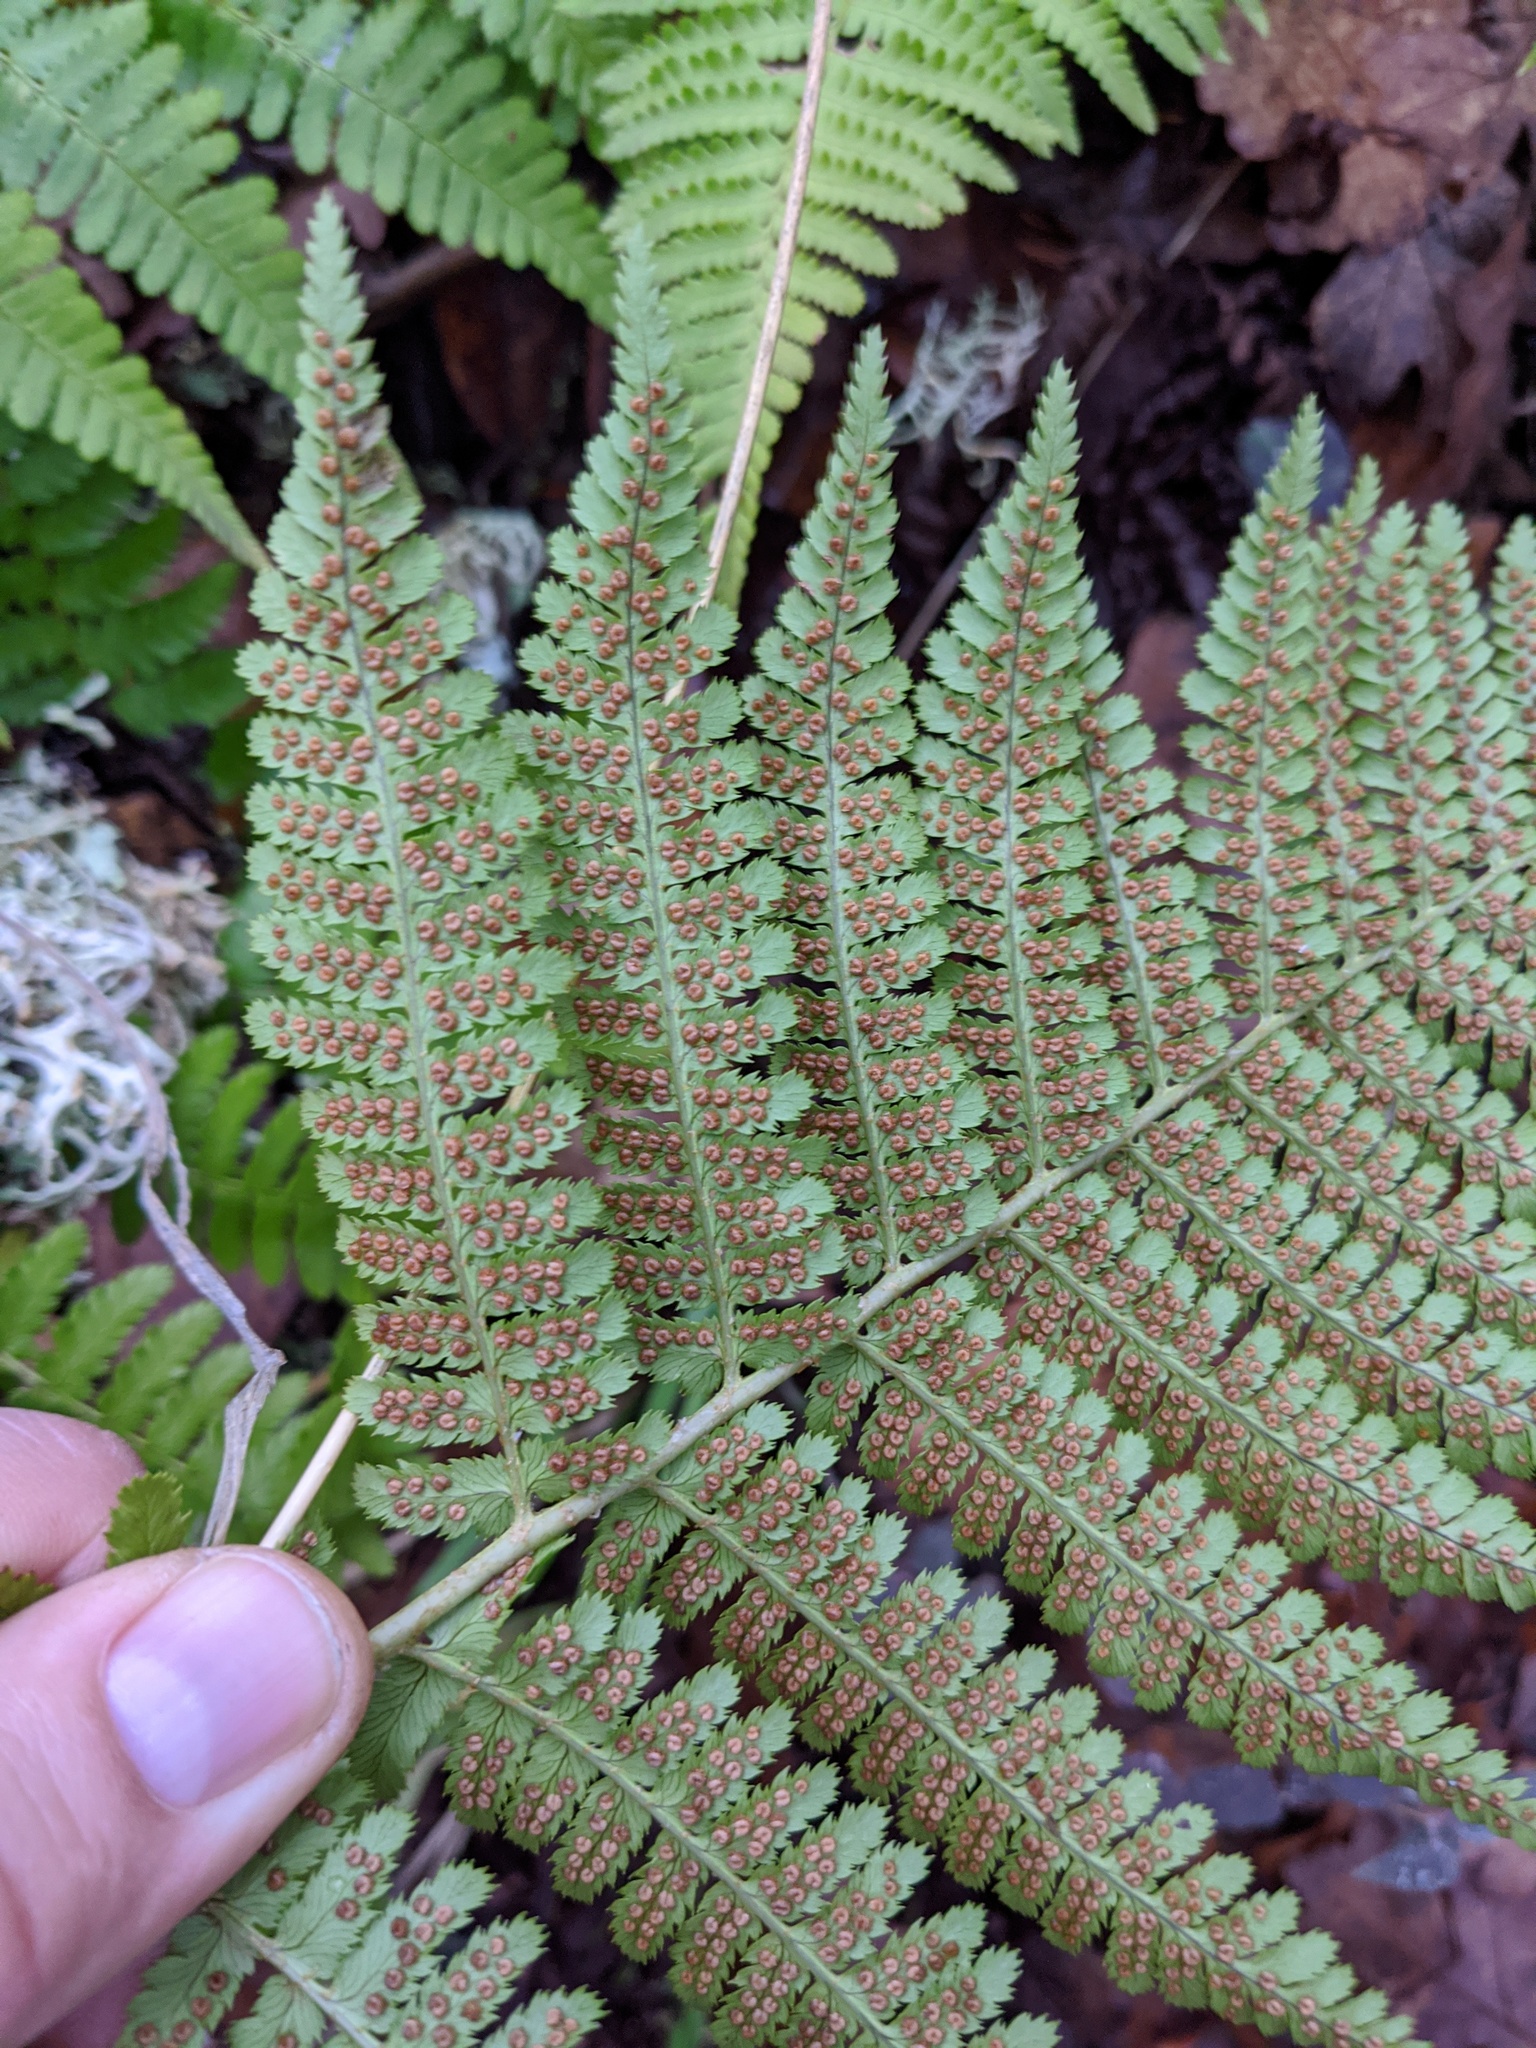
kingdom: Plantae
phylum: Tracheophyta
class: Polypodiopsida
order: Polypodiales
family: Dryopteridaceae
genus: Dryopteris
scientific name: Dryopteris arguta
